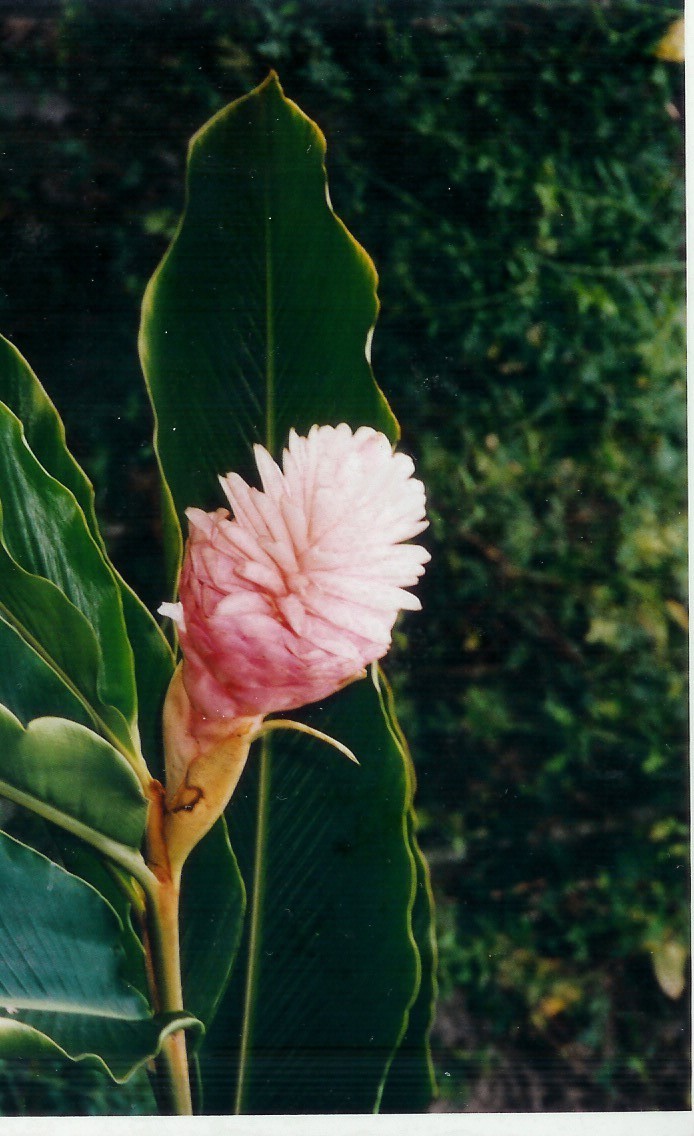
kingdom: Plantae
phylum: Tracheophyta
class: Liliopsida
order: Zingiberales
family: Zingiberaceae
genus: Alpinia
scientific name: Alpinia purpurata
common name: Red ginger
